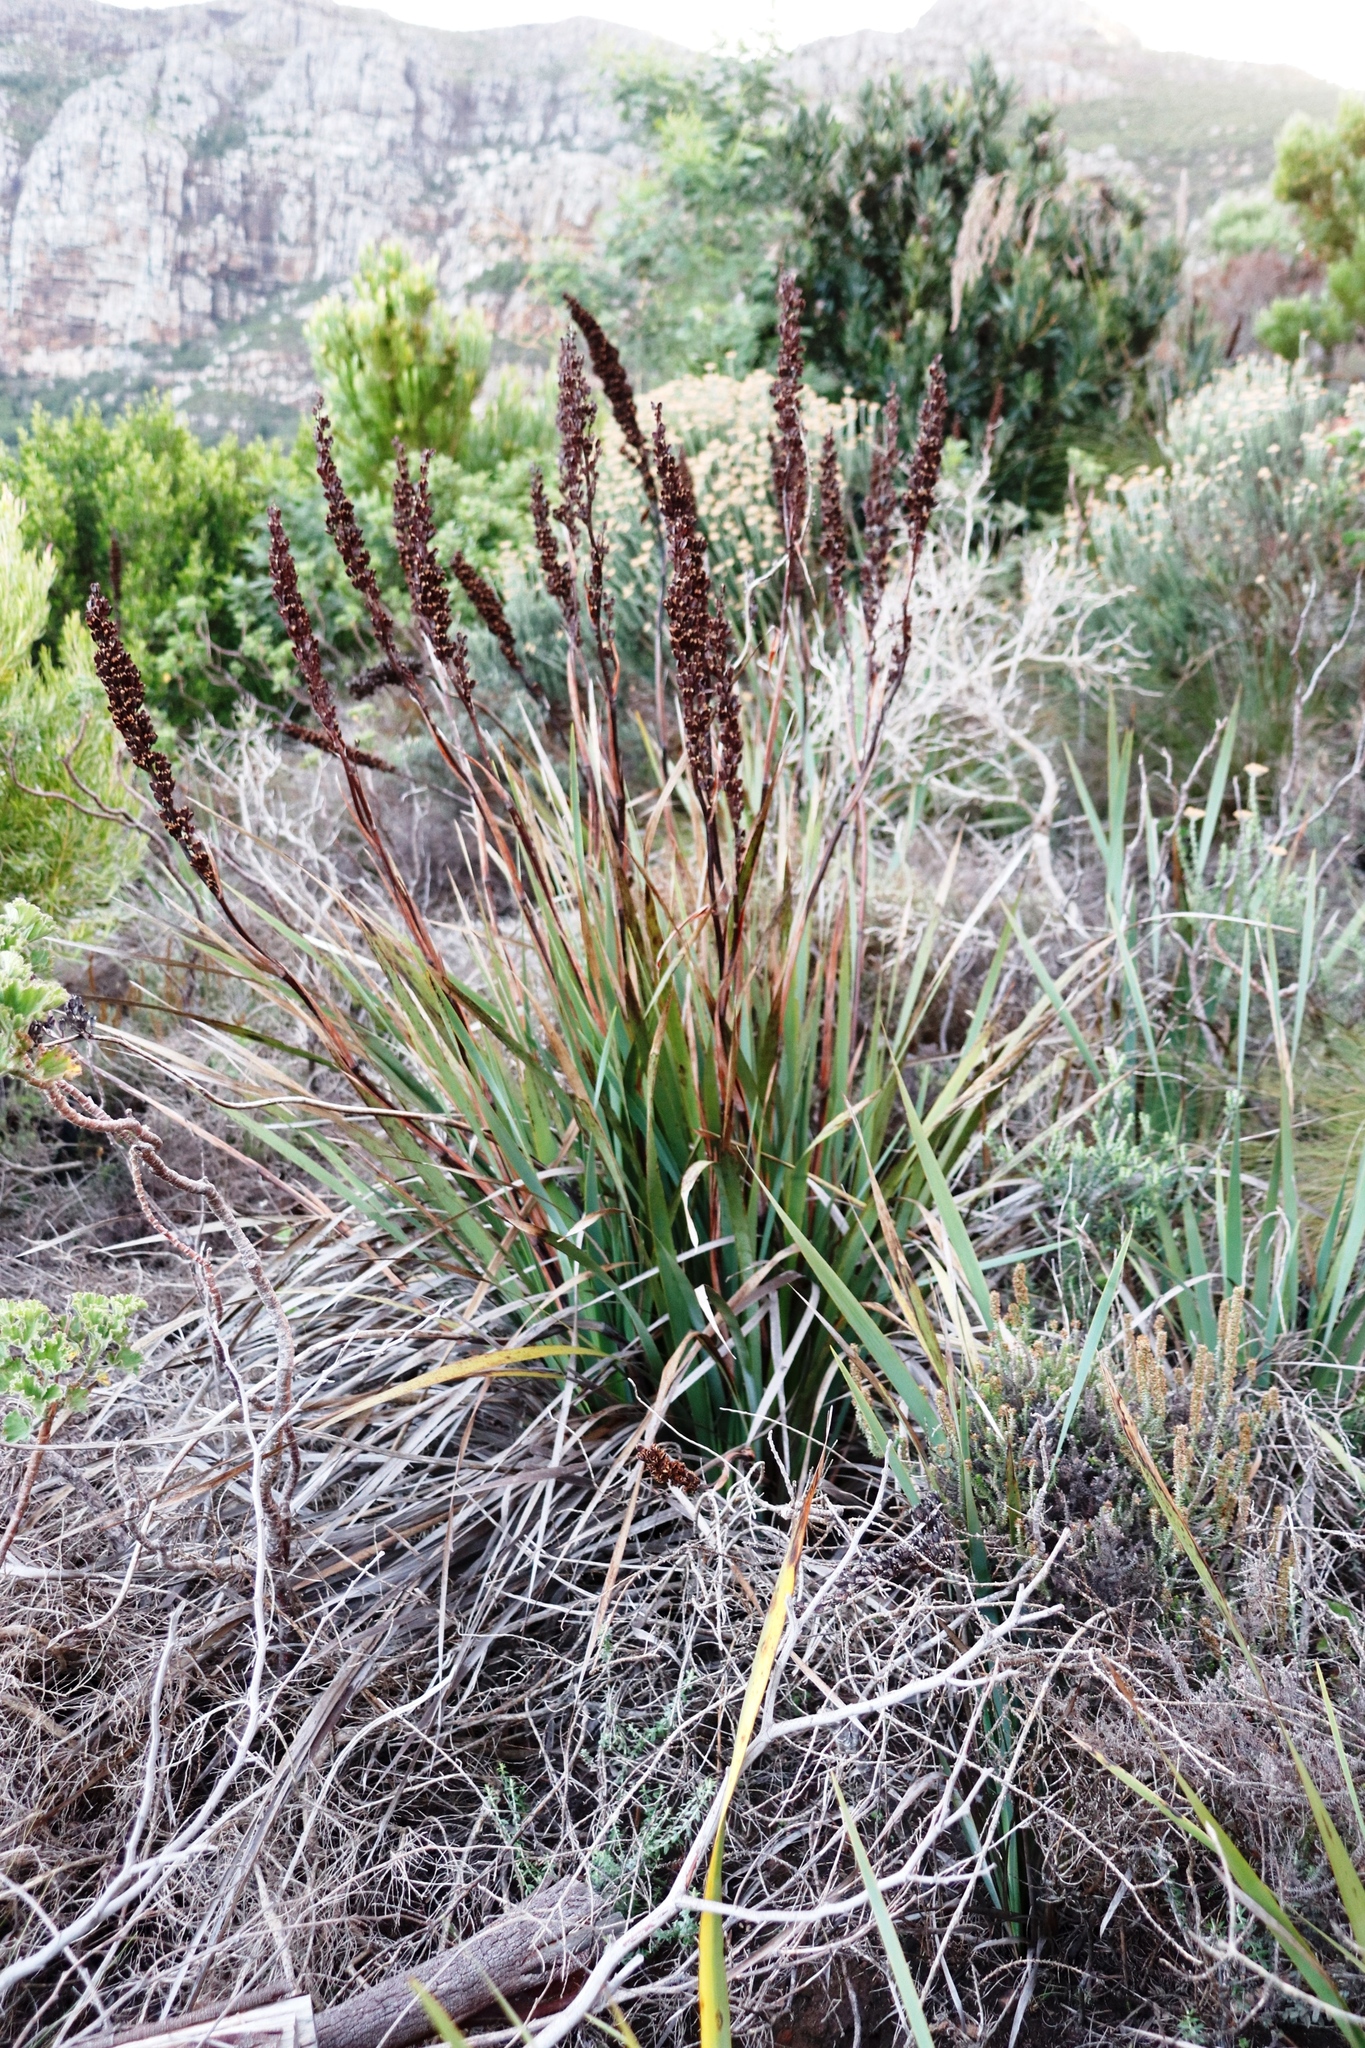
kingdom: Plantae
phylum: Tracheophyta
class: Liliopsida
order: Asparagales
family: Iridaceae
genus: Aristea
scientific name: Aristea capitata
